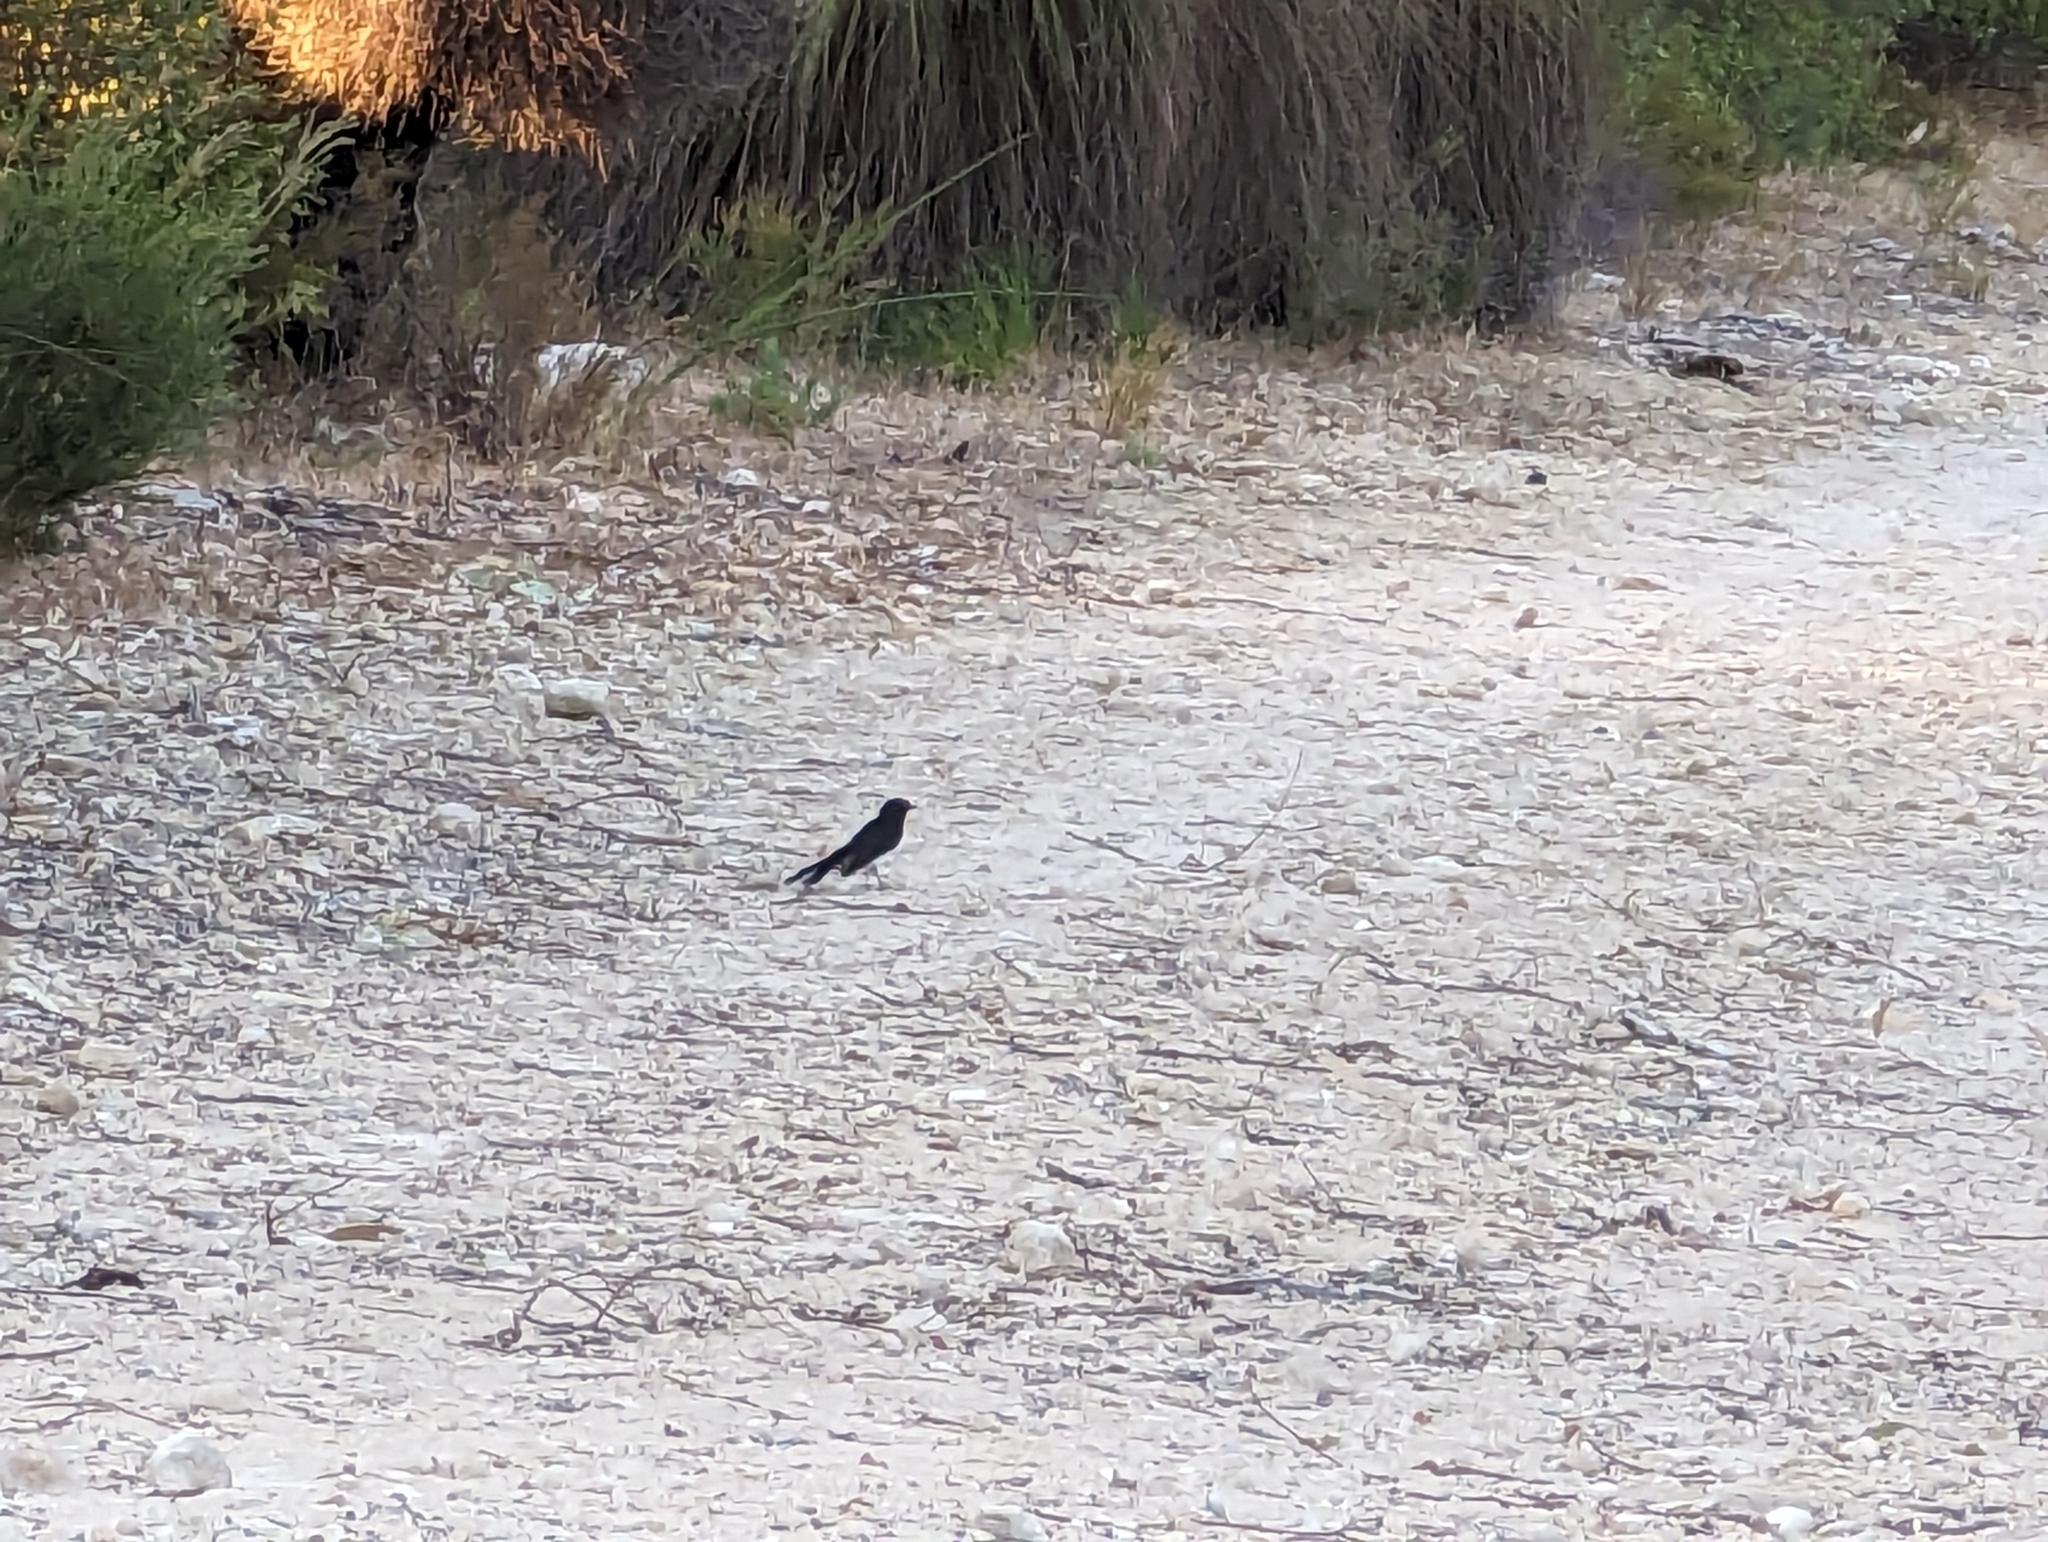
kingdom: Animalia
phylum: Chordata
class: Aves
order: Passeriformes
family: Rhipiduridae
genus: Rhipidura
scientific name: Rhipidura leucophrys
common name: Willie wagtail
